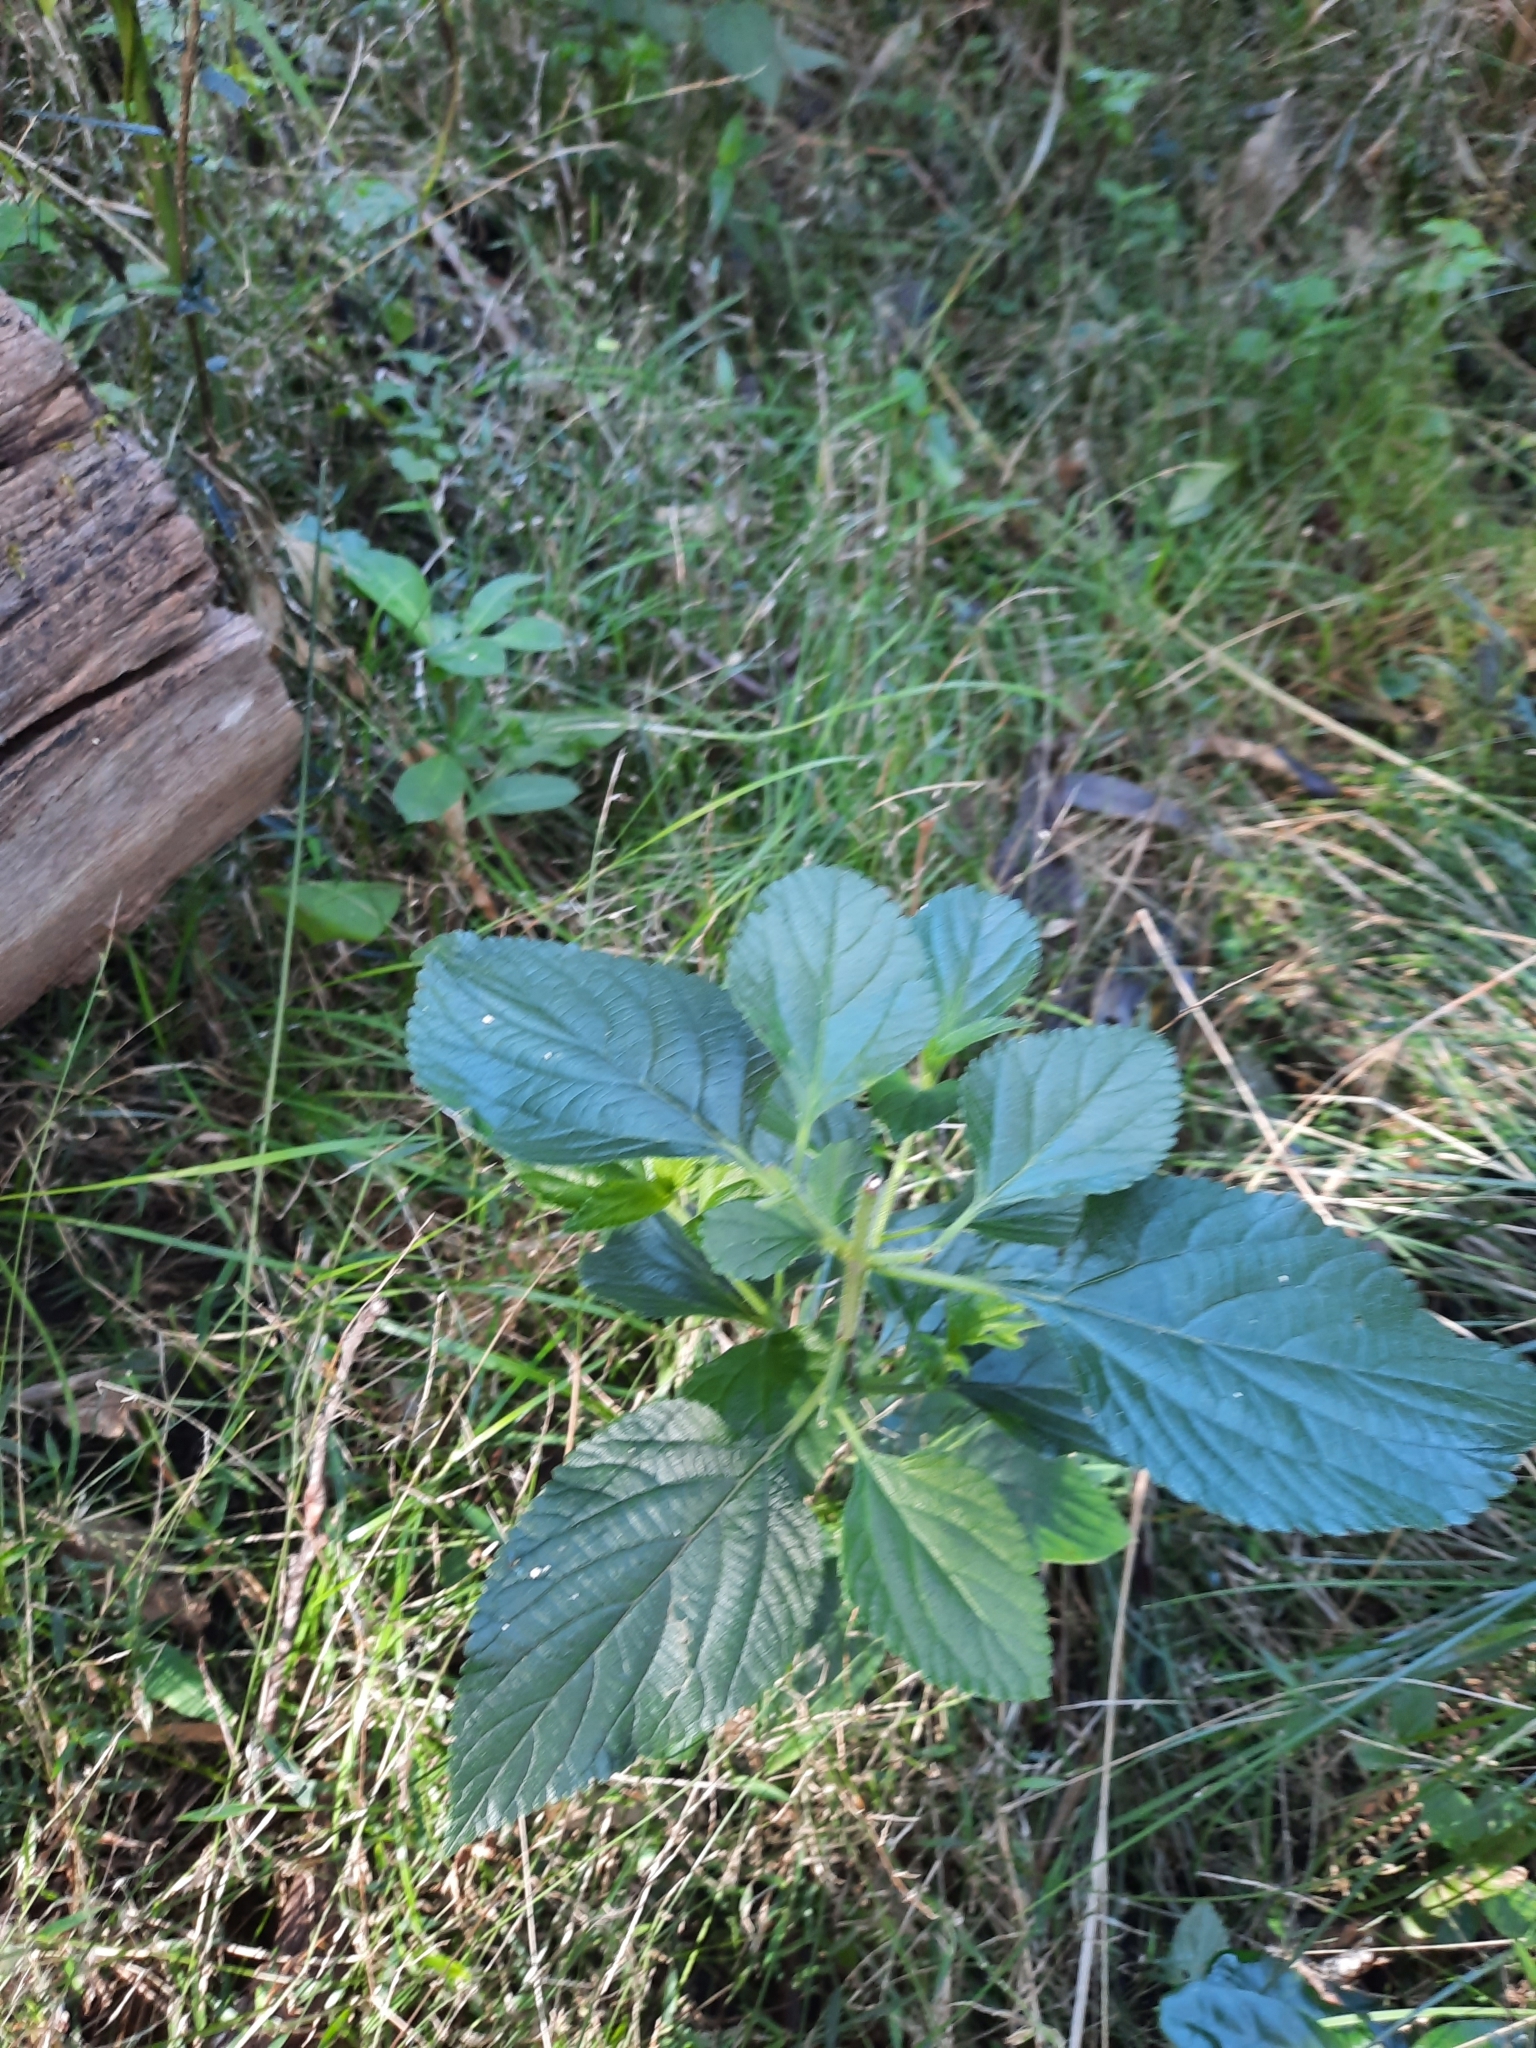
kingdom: Plantae
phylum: Tracheophyta
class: Magnoliopsida
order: Lamiales
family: Verbenaceae
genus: Lantana
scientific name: Lantana camara
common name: Lantana
